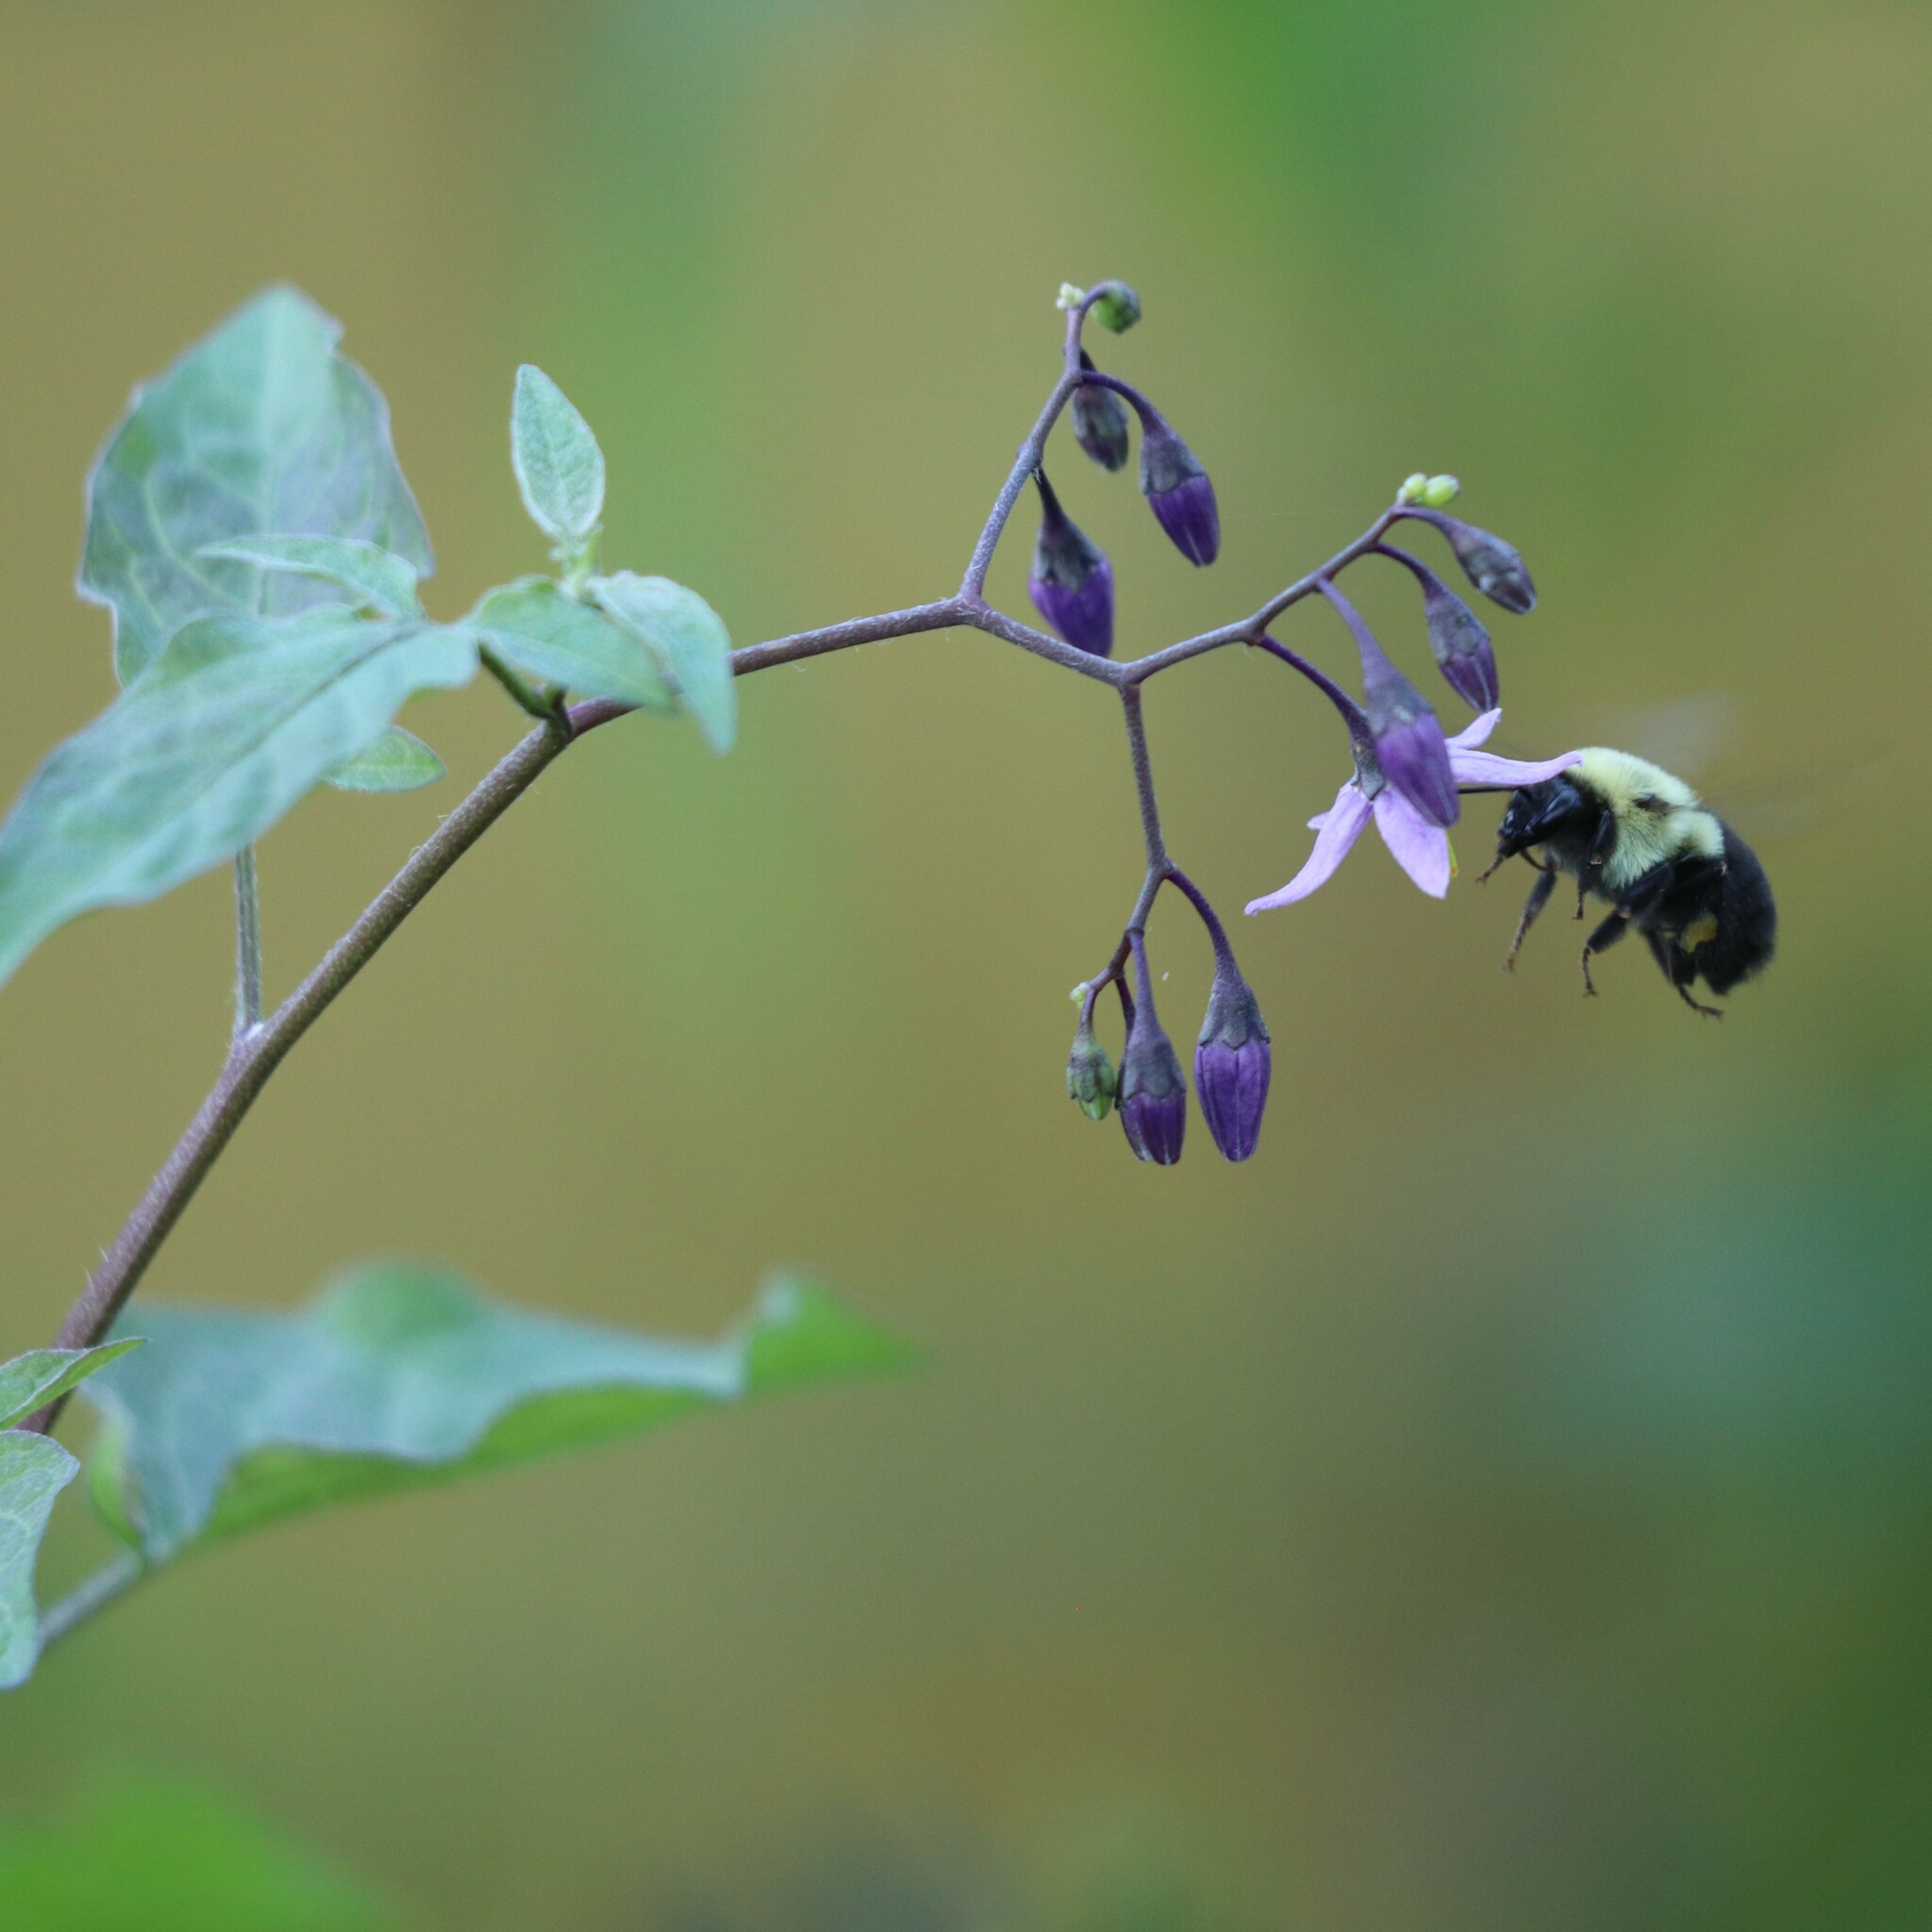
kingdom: Plantae
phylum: Tracheophyta
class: Magnoliopsida
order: Solanales
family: Solanaceae
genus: Solanum
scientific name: Solanum dulcamara
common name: Climbing nightshade
